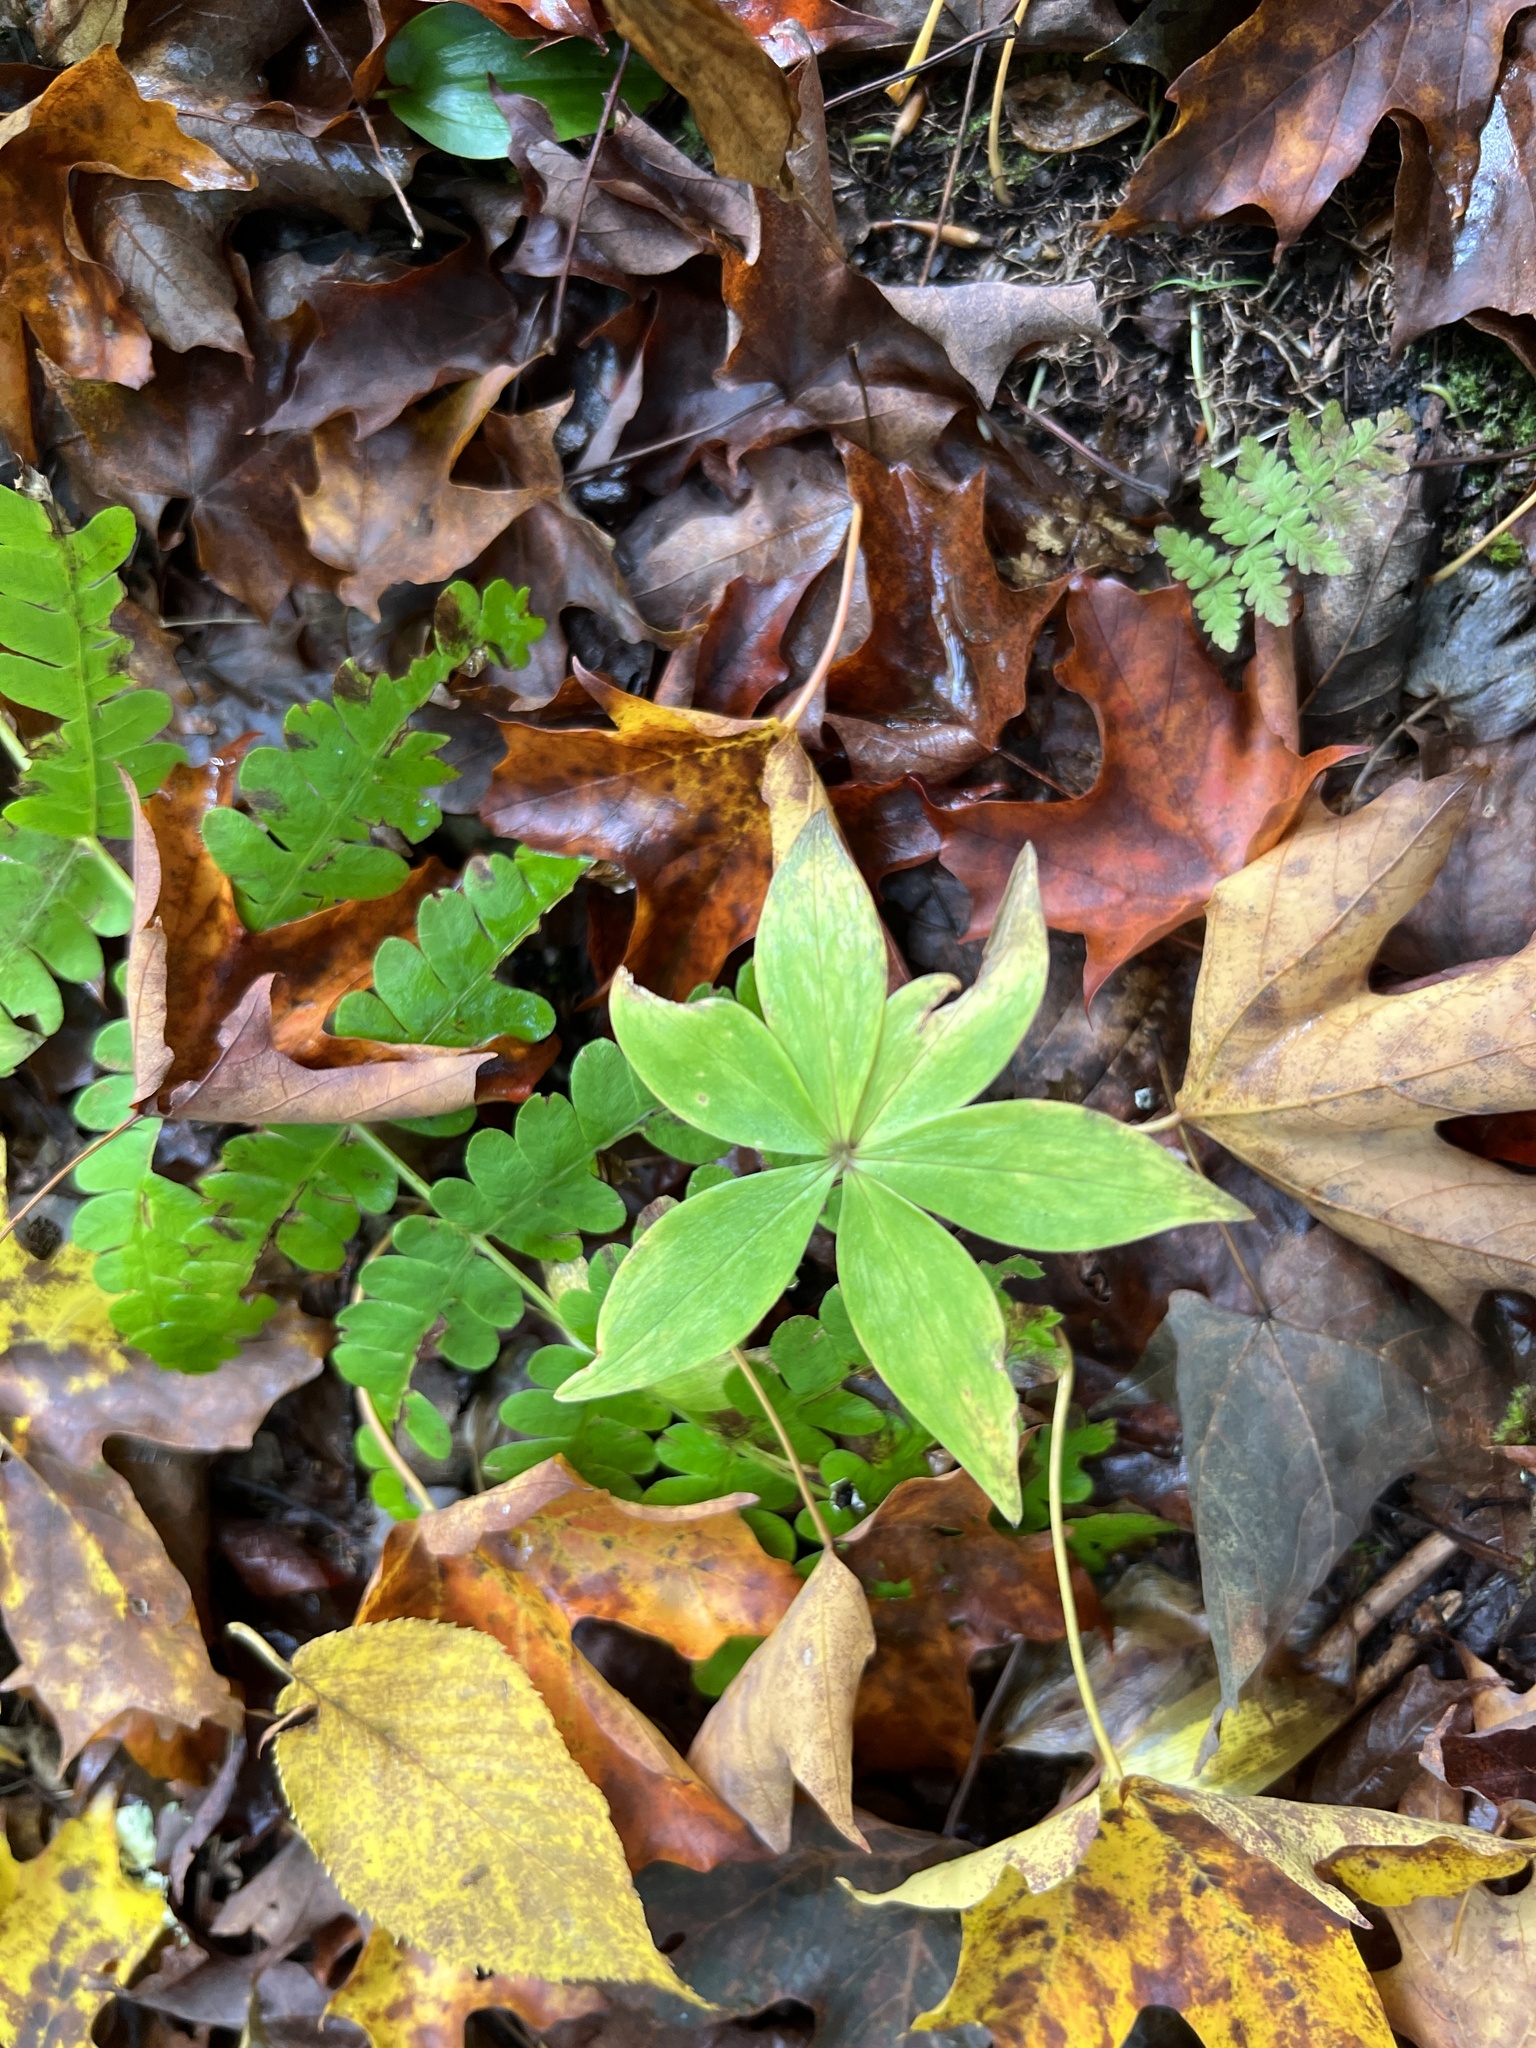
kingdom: Plantae
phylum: Tracheophyta
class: Liliopsida
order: Liliales
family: Liliaceae
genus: Medeola
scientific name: Medeola virginiana
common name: Indian cucumber-root
